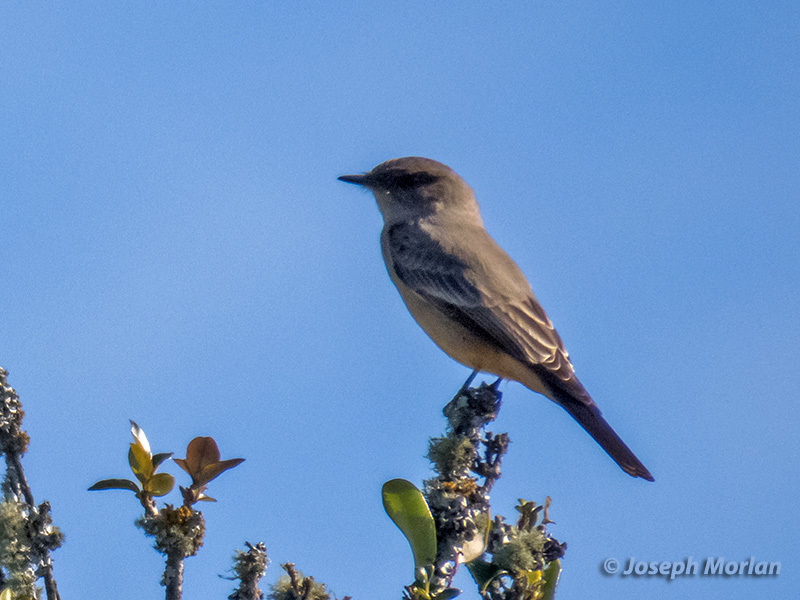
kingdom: Animalia
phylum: Chordata
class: Aves
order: Passeriformes
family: Tyrannidae
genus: Sayornis
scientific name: Sayornis saya
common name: Say's phoebe
